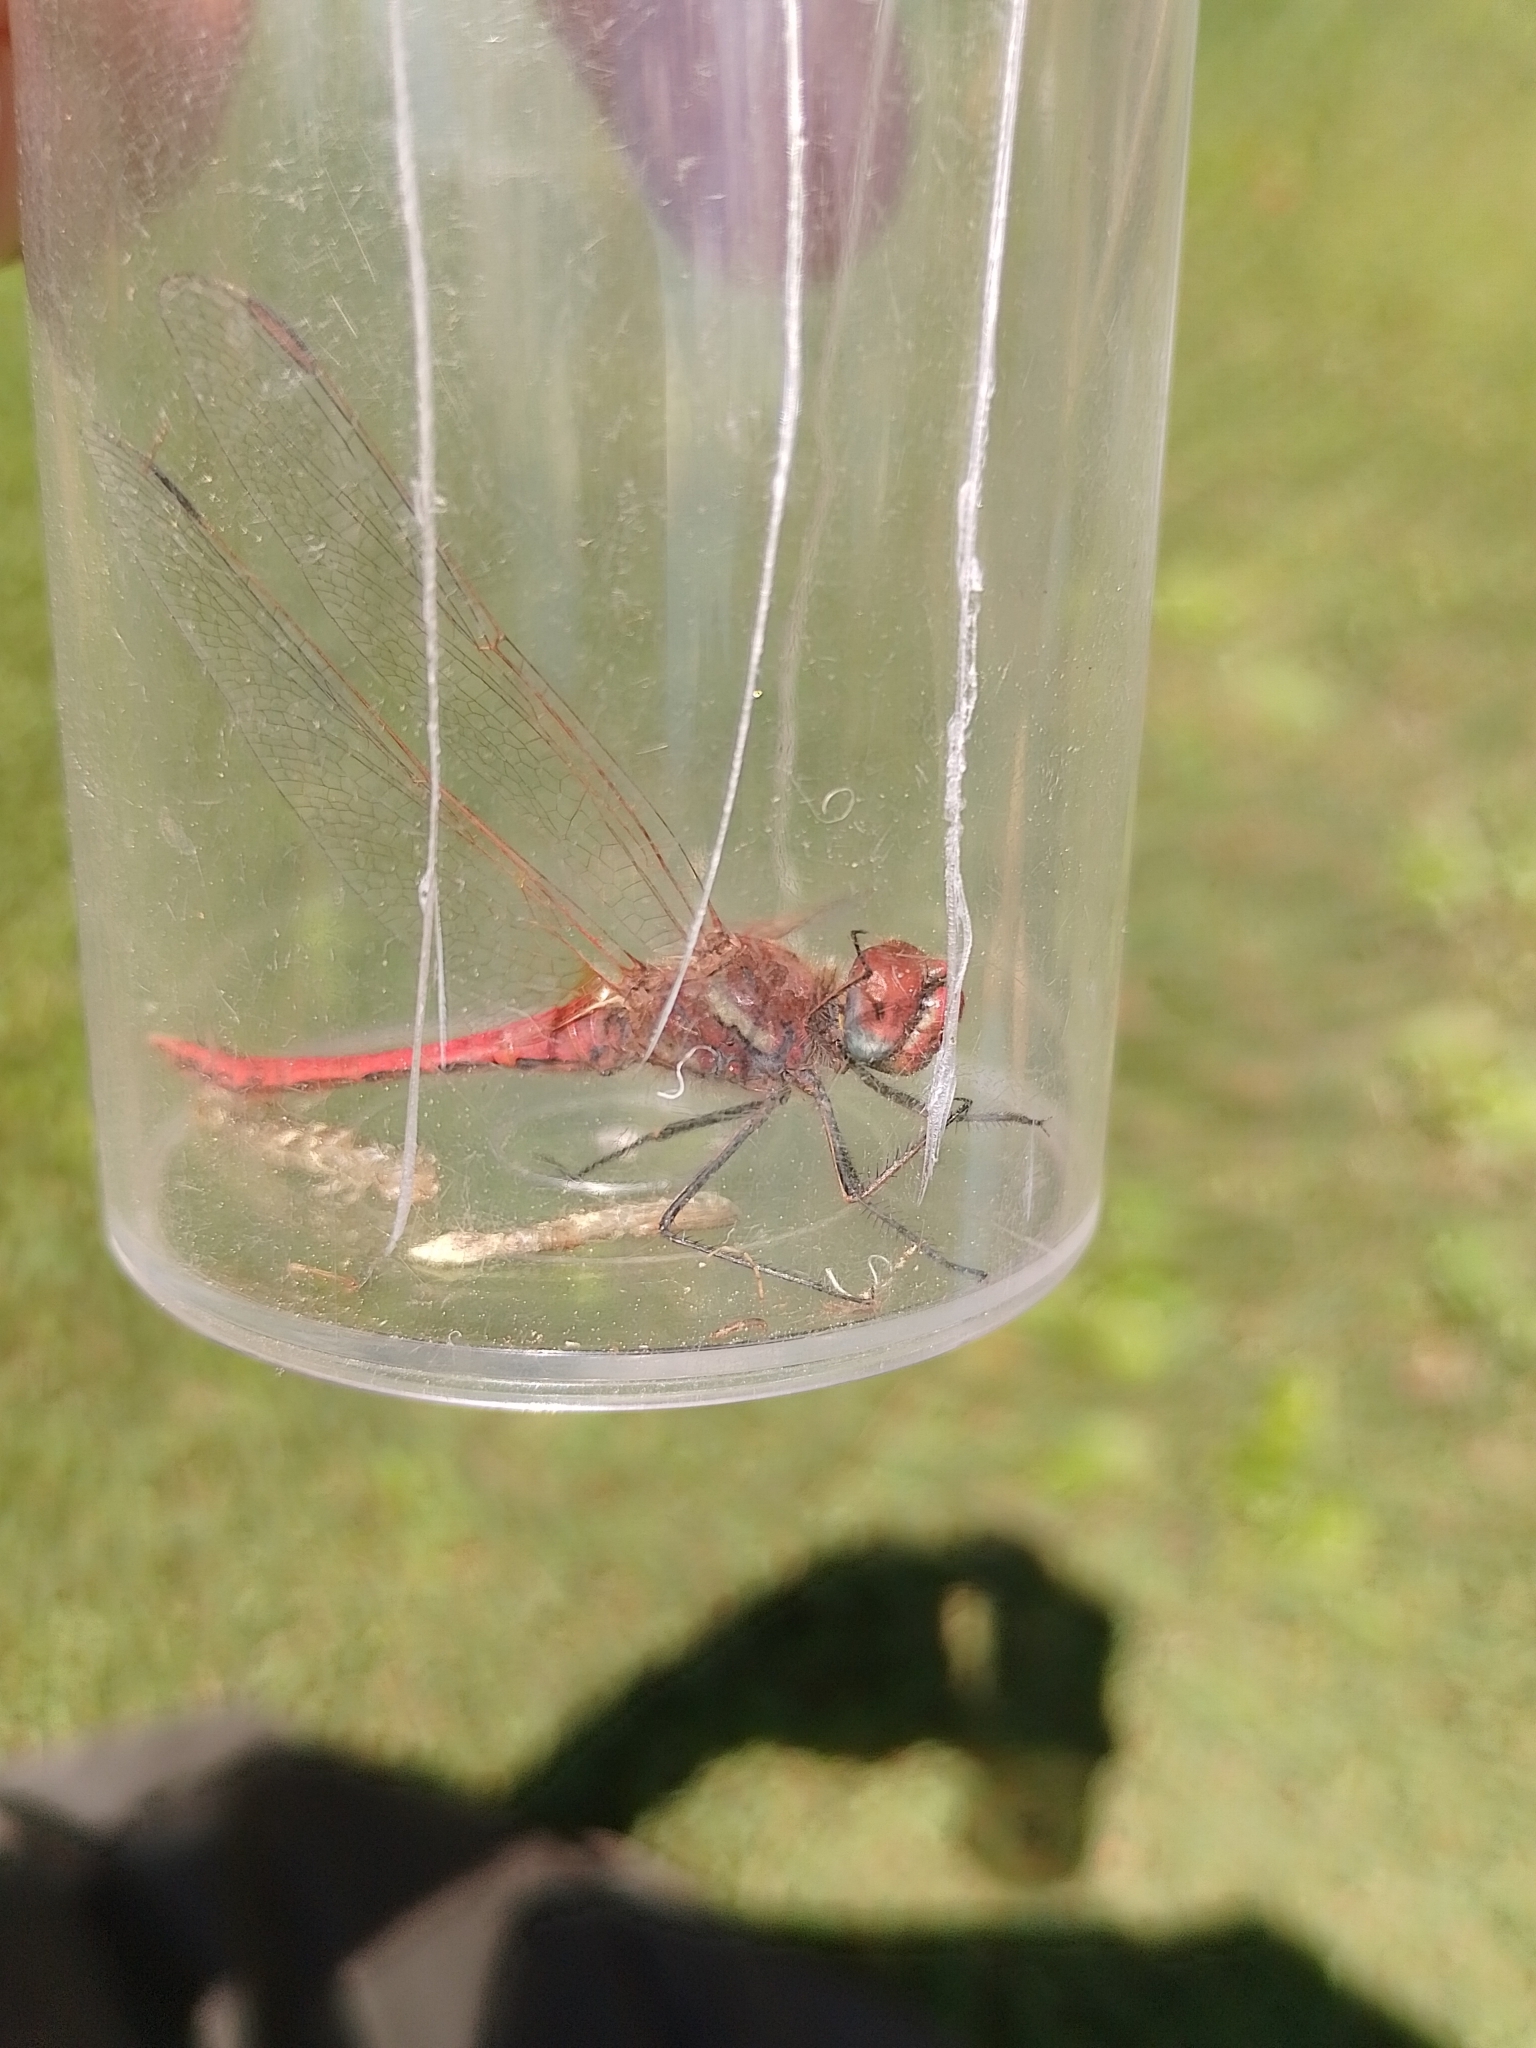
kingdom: Animalia
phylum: Arthropoda
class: Insecta
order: Odonata
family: Libellulidae
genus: Sympetrum
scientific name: Sympetrum fonscolombii
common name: Red-veined darter
